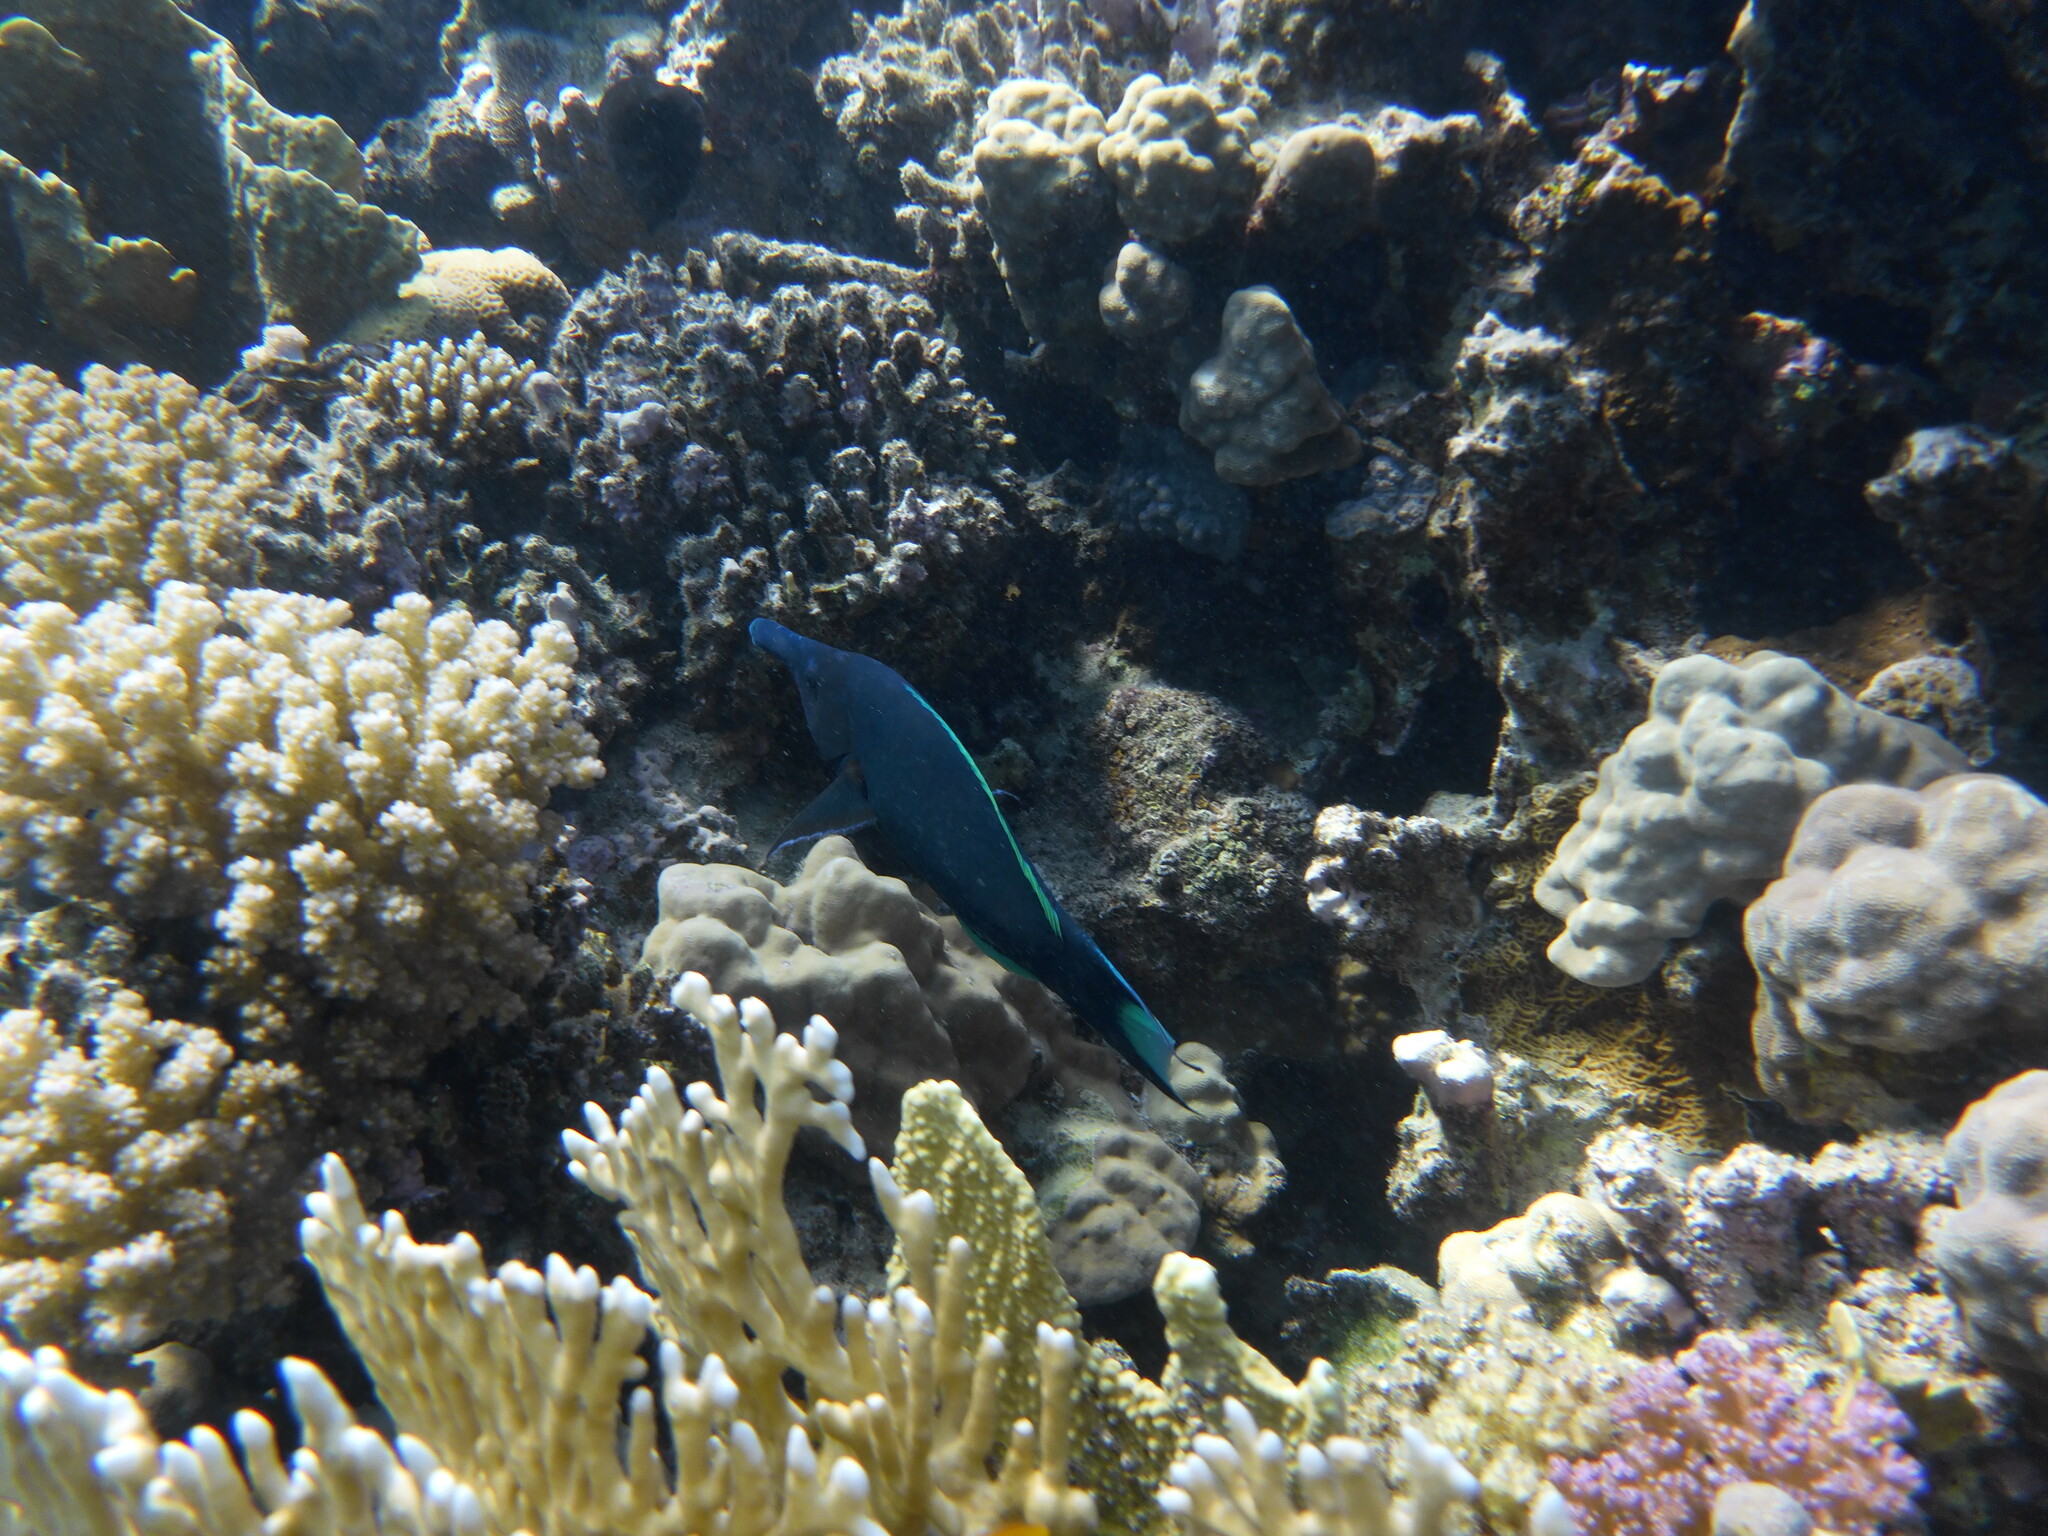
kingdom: Animalia
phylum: Chordata
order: Perciformes
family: Labridae
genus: Gomphosus
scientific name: Gomphosus klunzingeri
